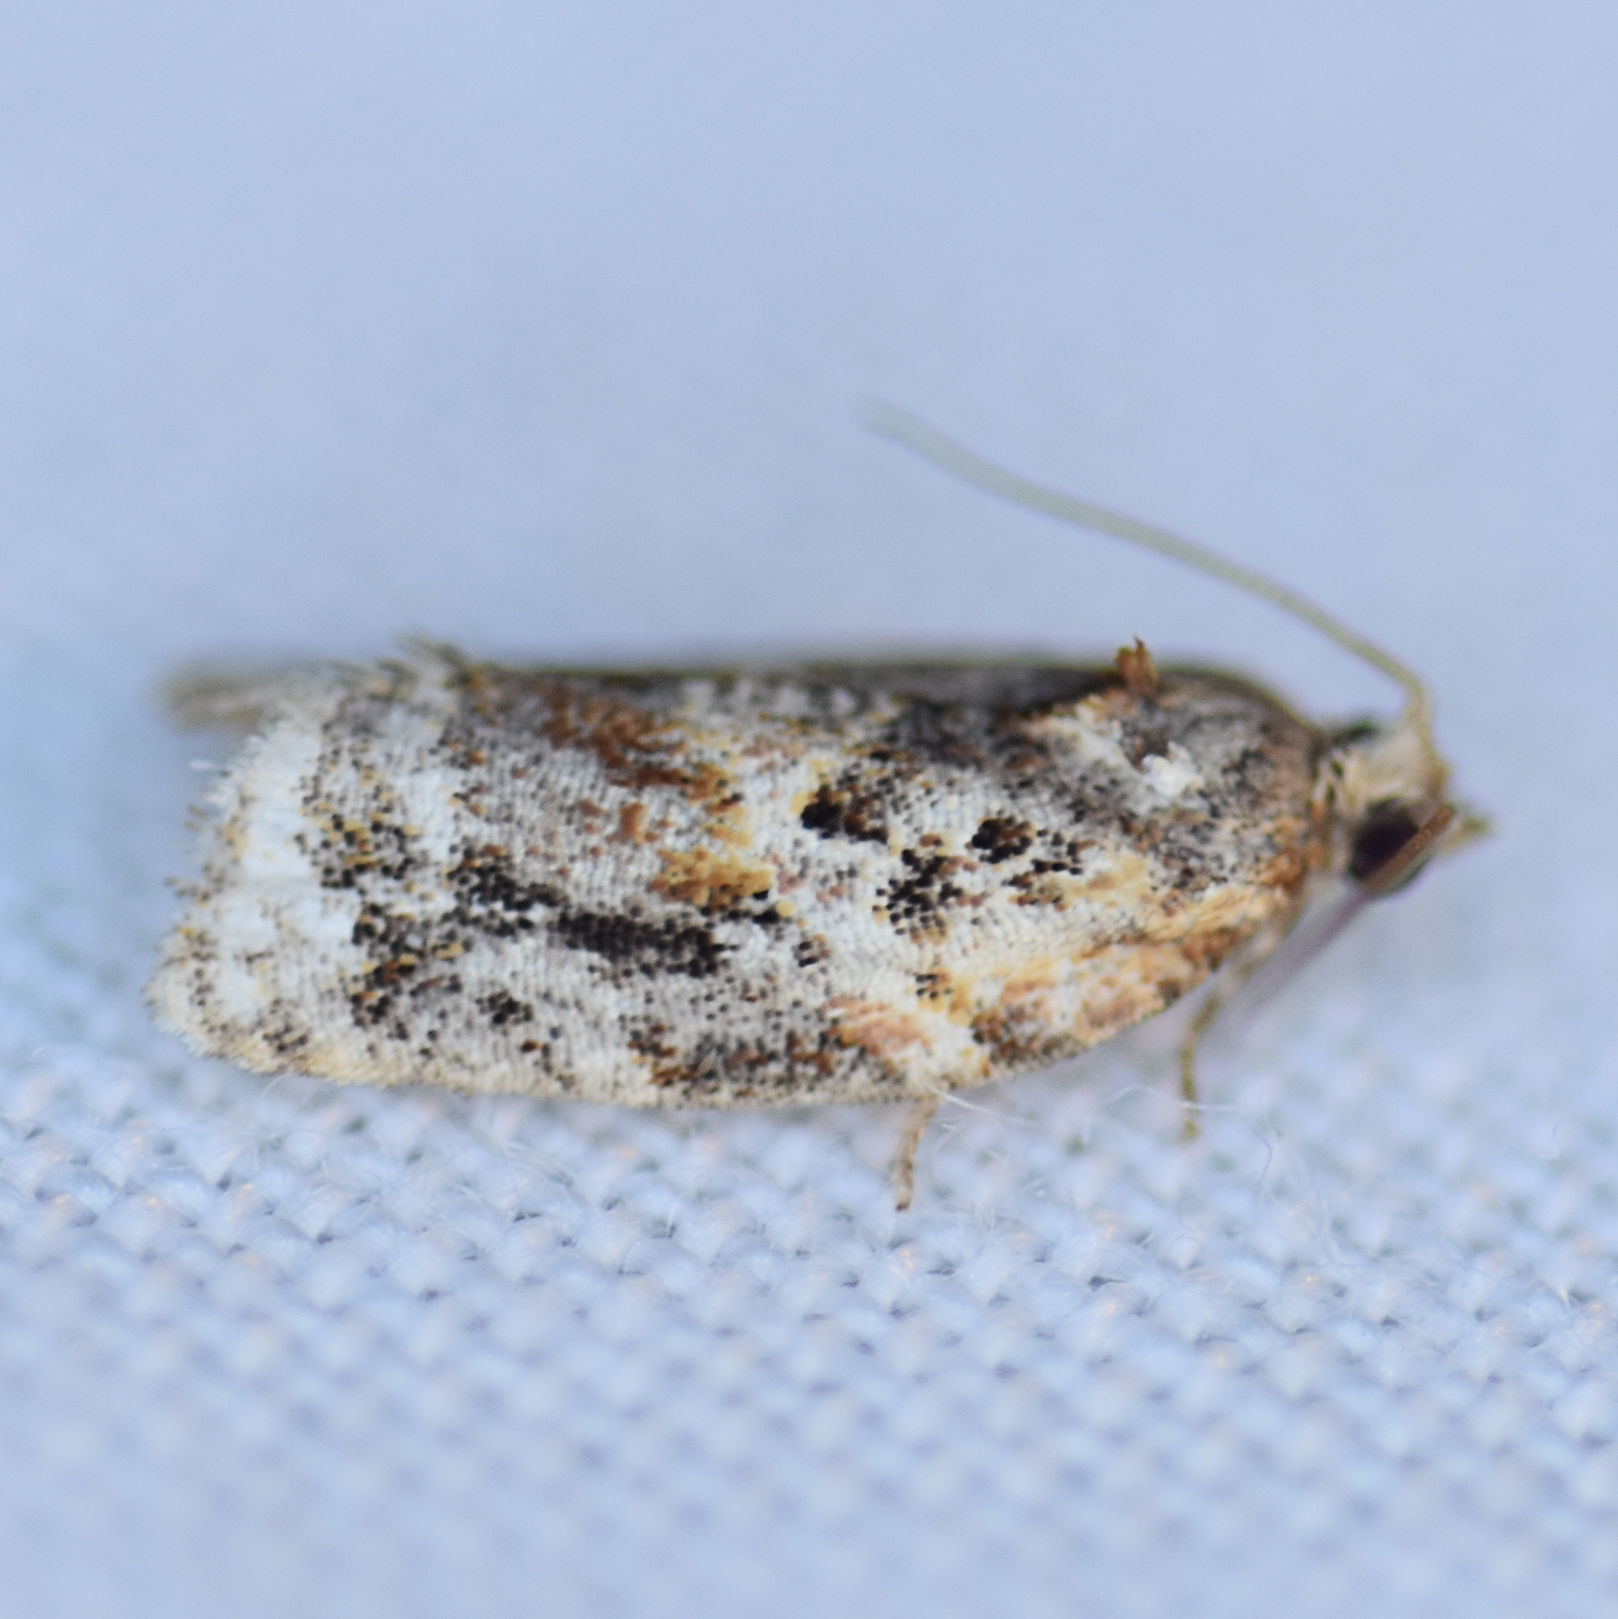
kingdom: Animalia
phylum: Arthropoda
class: Insecta
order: Lepidoptera
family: Tortricidae
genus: Argyrotaenia
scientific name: Argyrotaenia velutinana
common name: Red-banded leafroller moth
